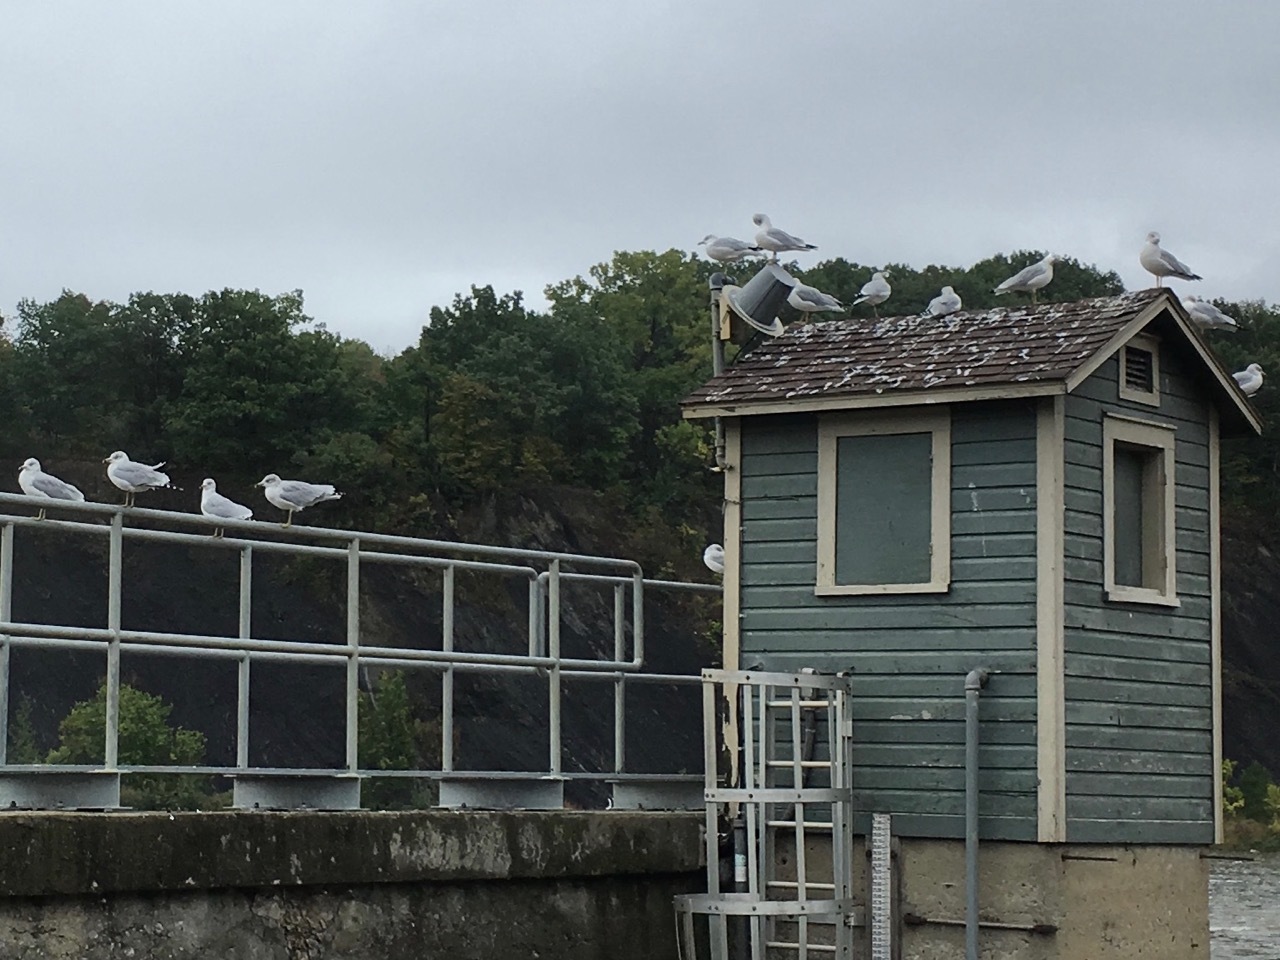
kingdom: Animalia
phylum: Chordata
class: Aves
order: Charadriiformes
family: Laridae
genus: Larus
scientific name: Larus delawarensis
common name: Ring-billed gull
